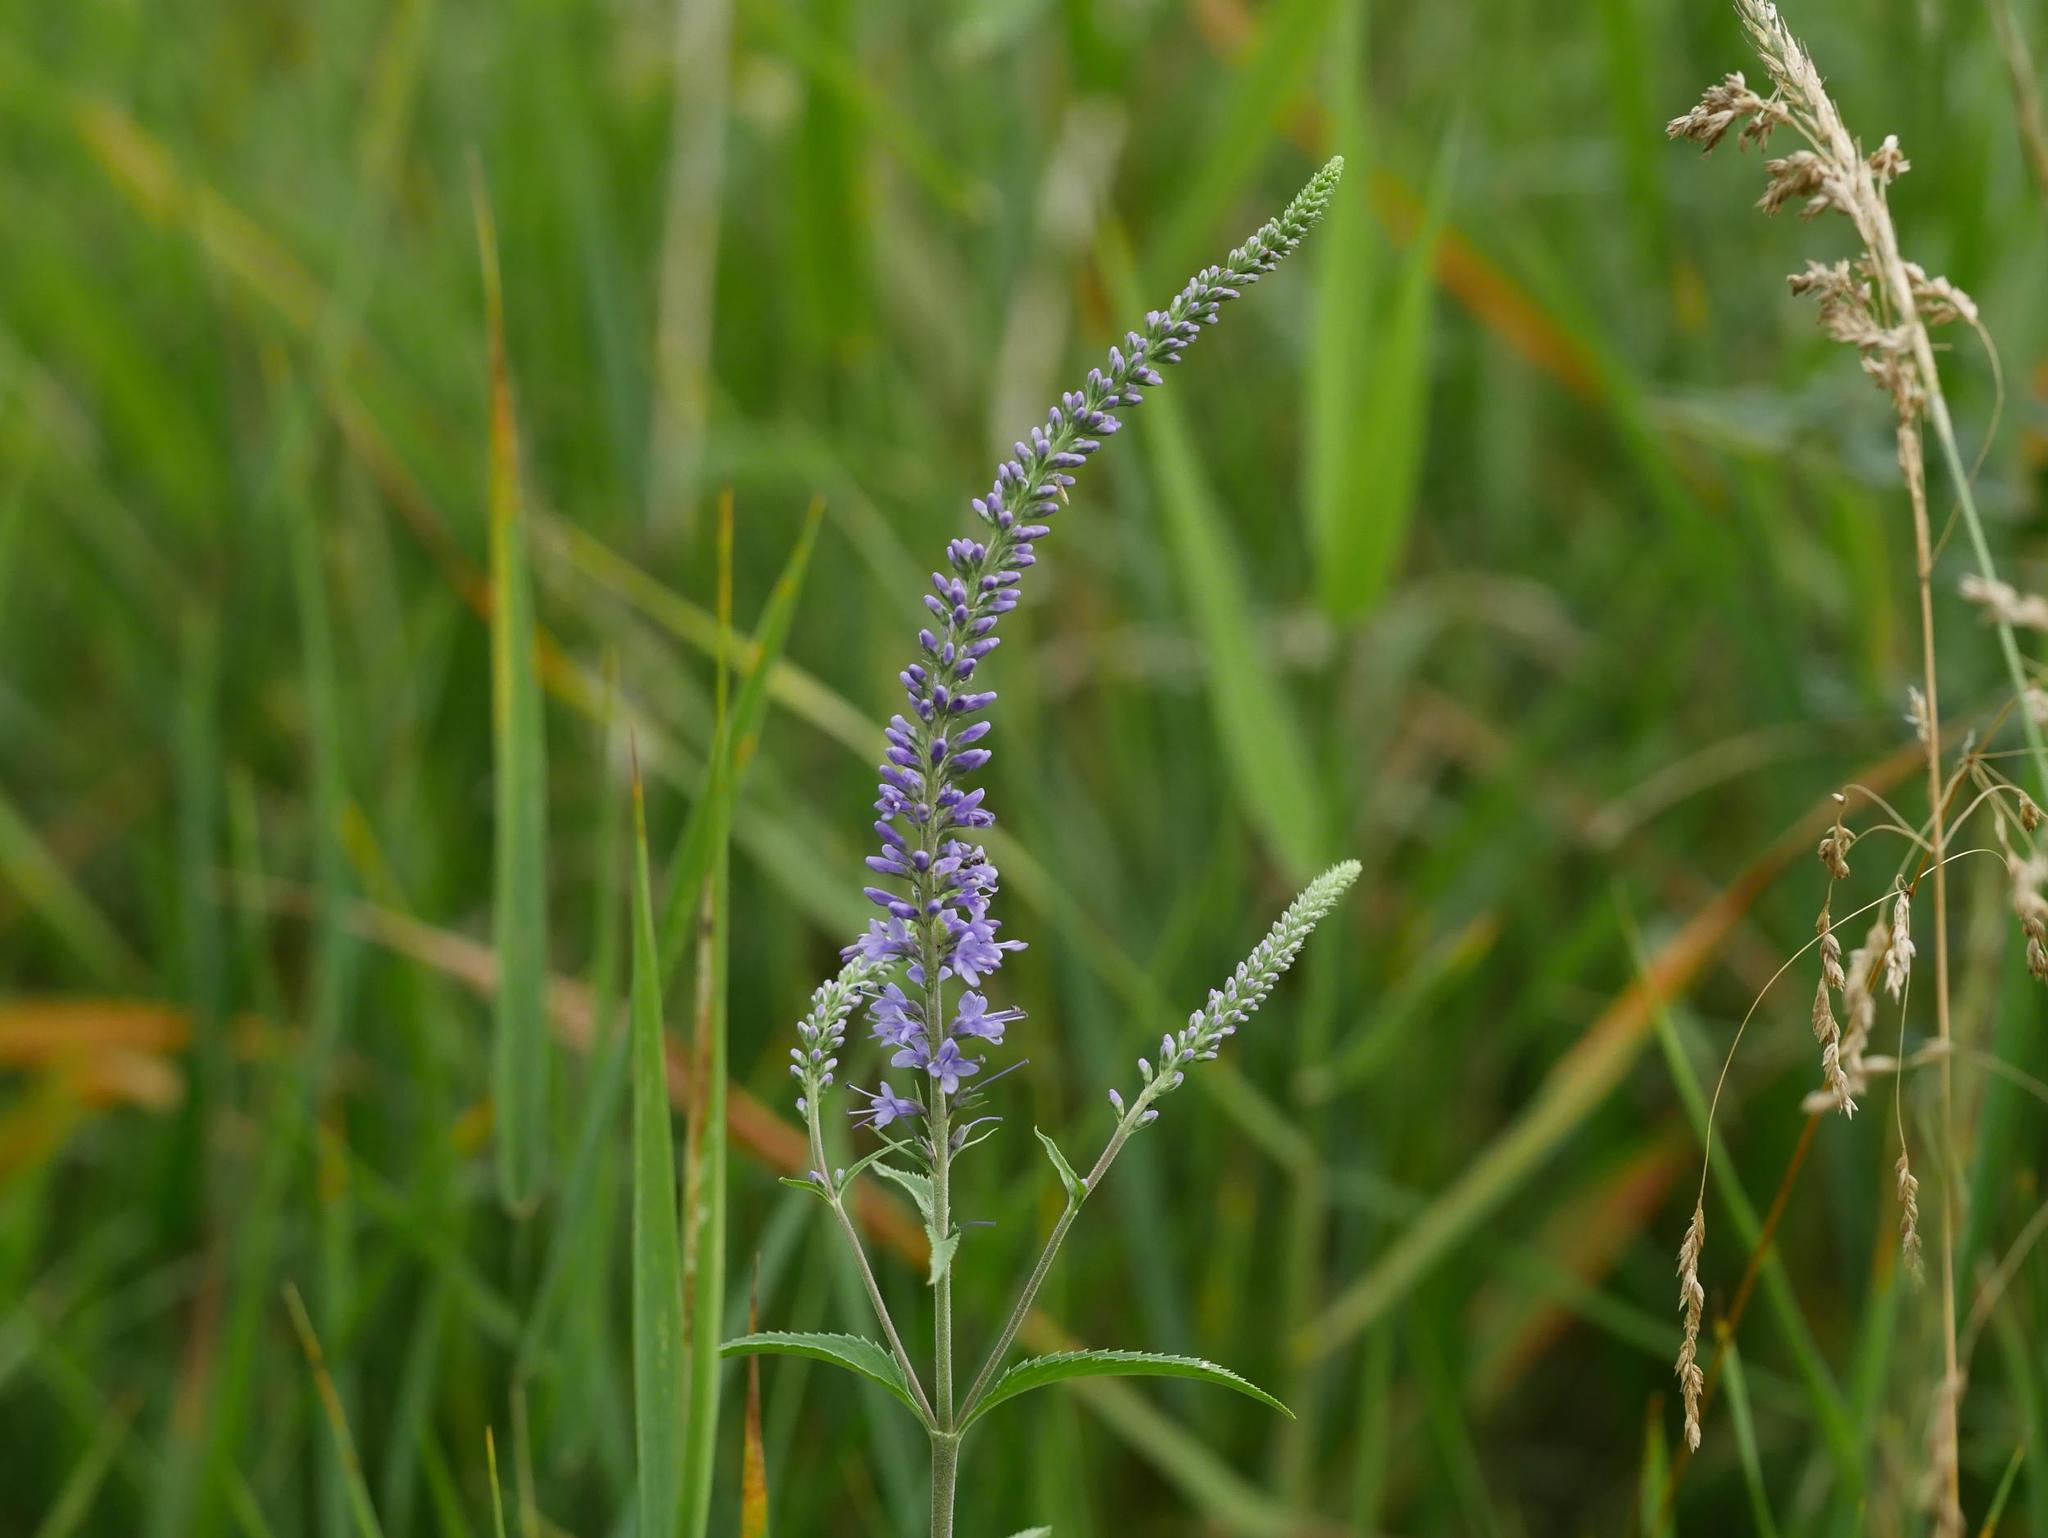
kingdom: Plantae
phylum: Tracheophyta
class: Magnoliopsida
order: Lamiales
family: Plantaginaceae
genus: Veronica
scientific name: Veronica longifolia
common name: Garden speedwell
